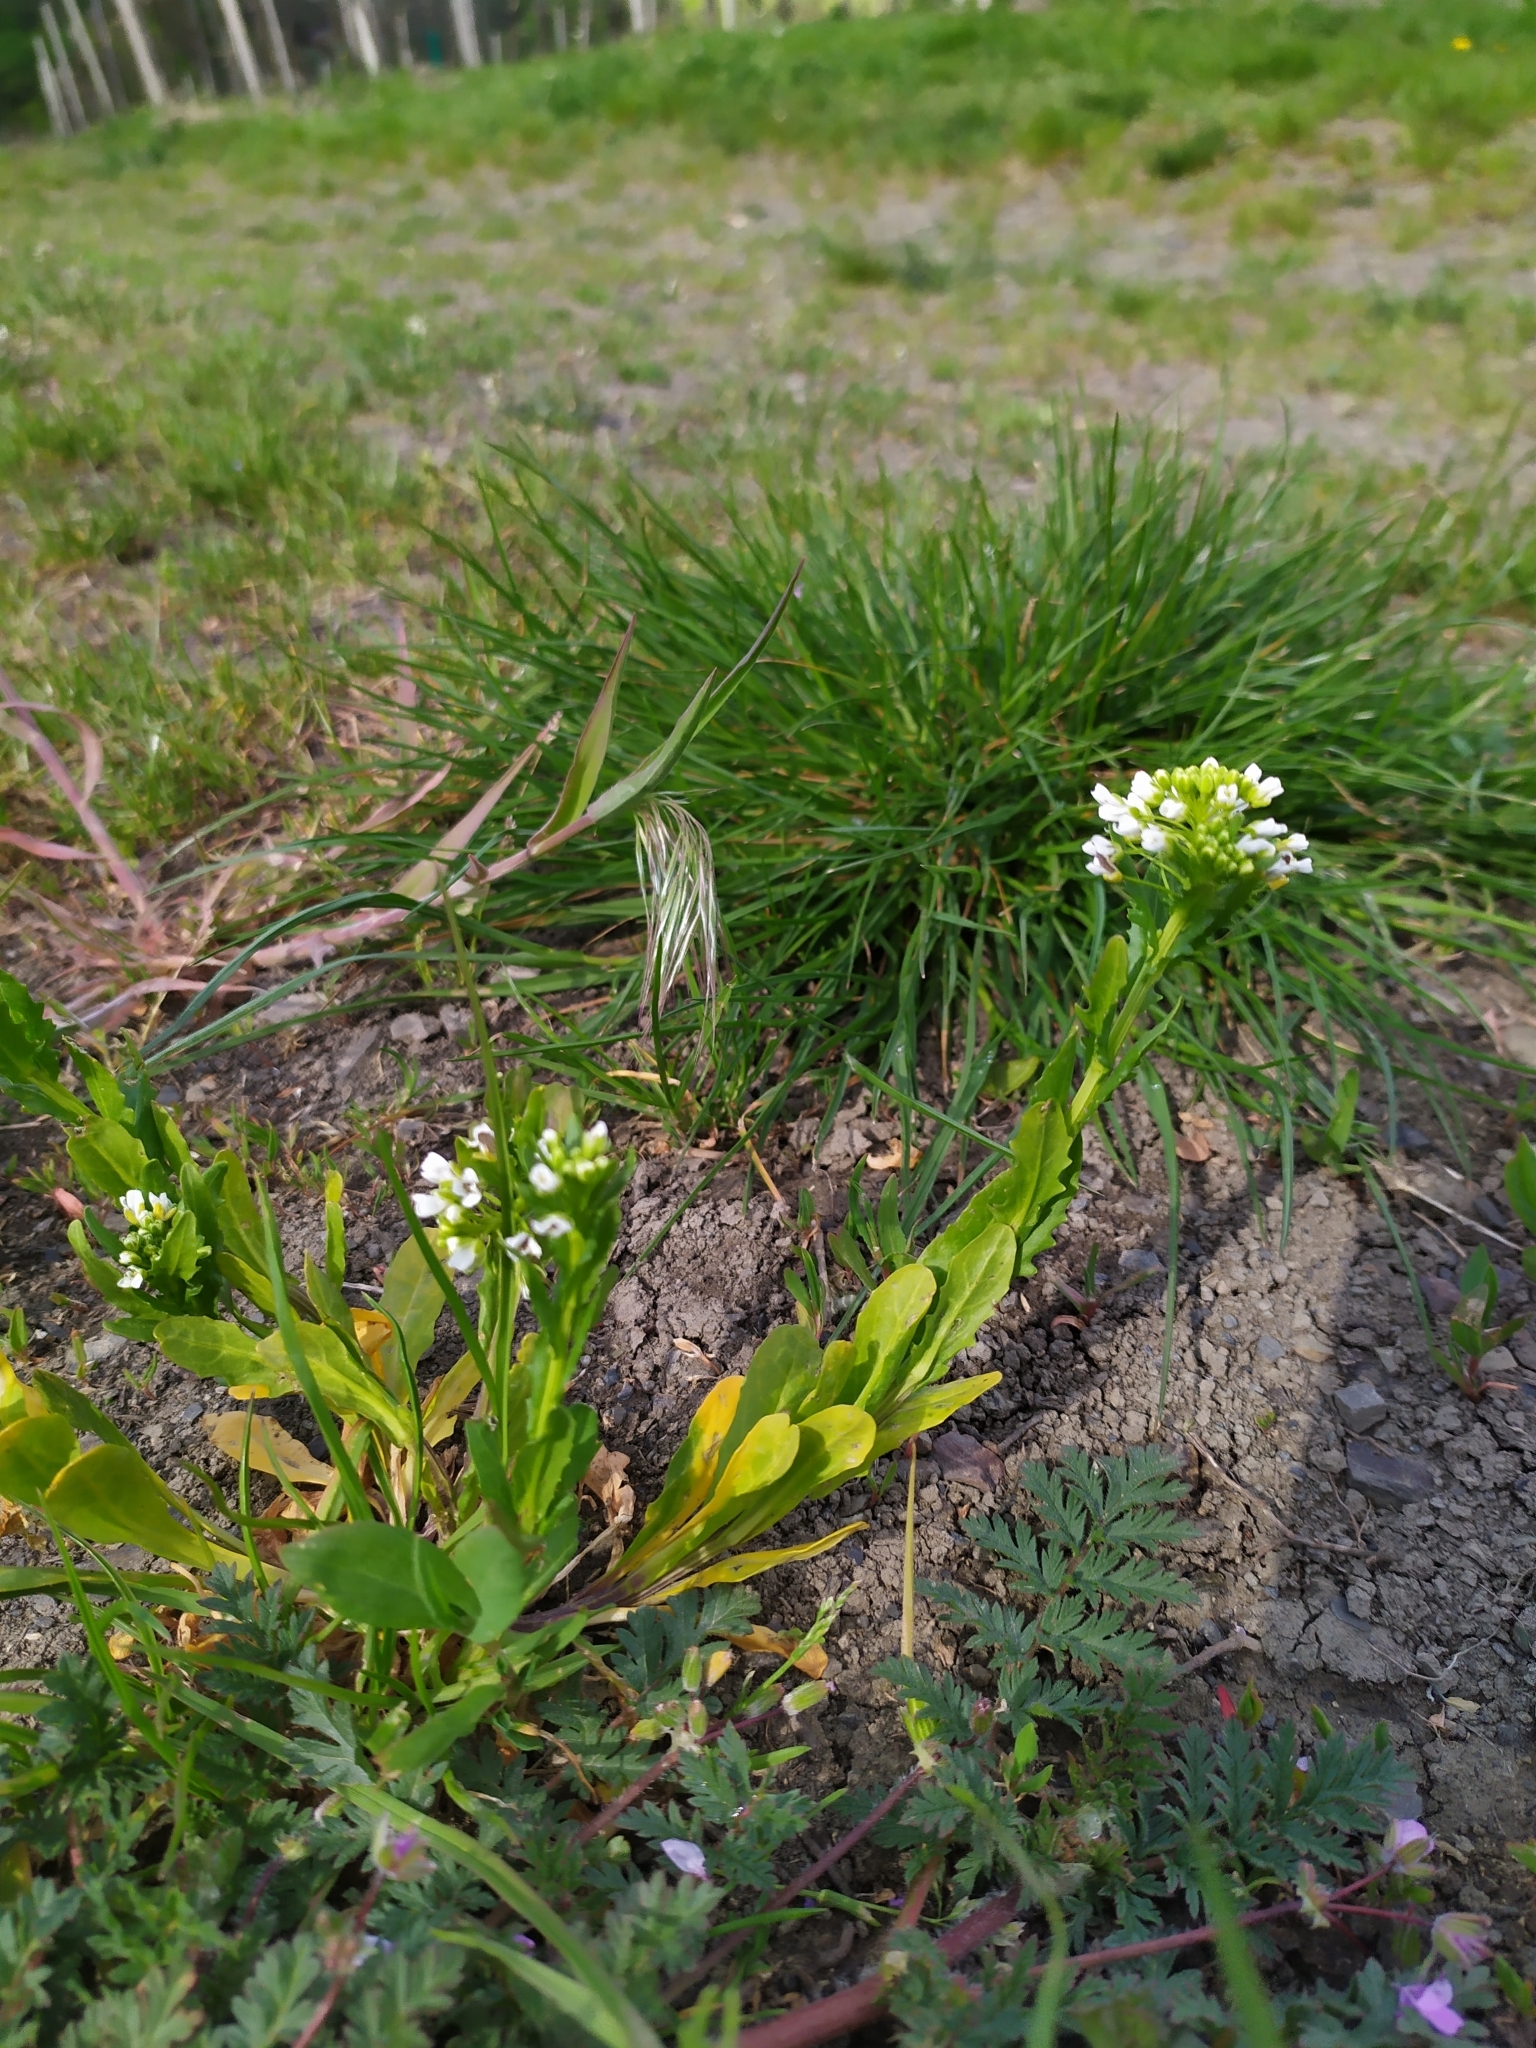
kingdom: Plantae
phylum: Tracheophyta
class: Magnoliopsida
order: Brassicales
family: Brassicaceae
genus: Thlaspi
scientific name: Thlaspi arvense
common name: Field pennycress
